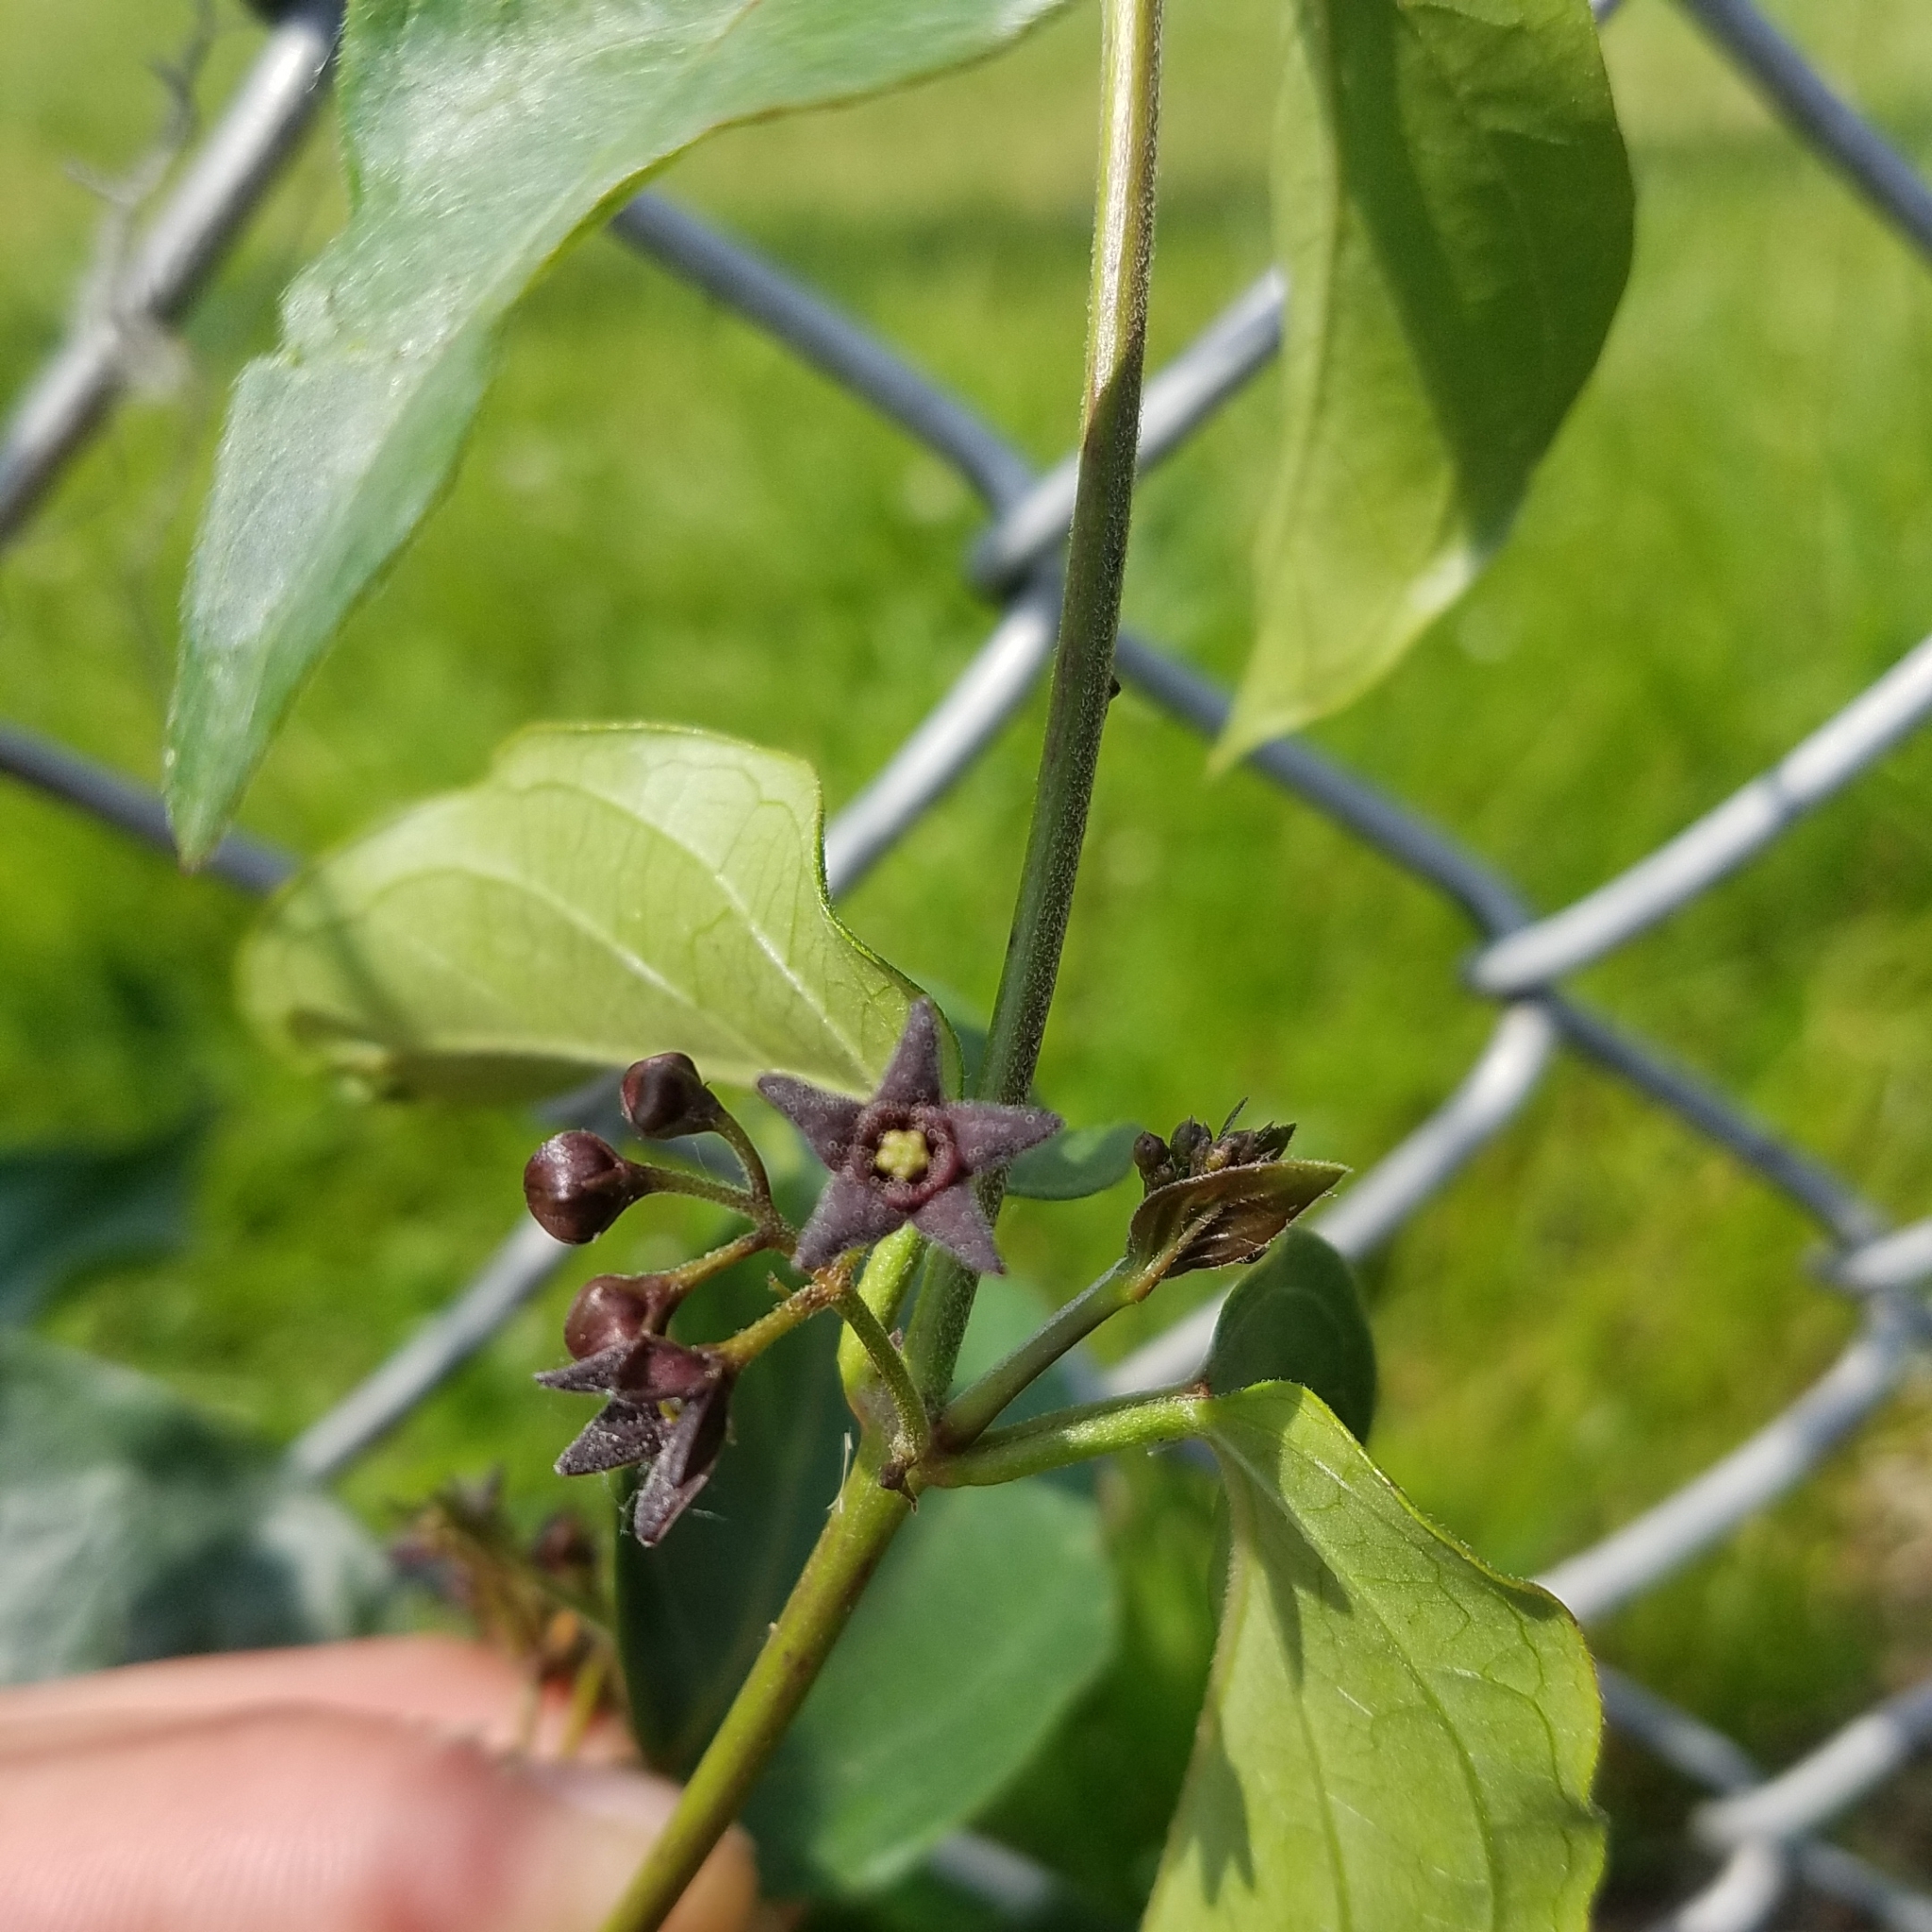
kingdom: Plantae
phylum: Tracheophyta
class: Magnoliopsida
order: Gentianales
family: Apocynaceae
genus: Vincetoxicum
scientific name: Vincetoxicum nigrum
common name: Black swallow-wort
